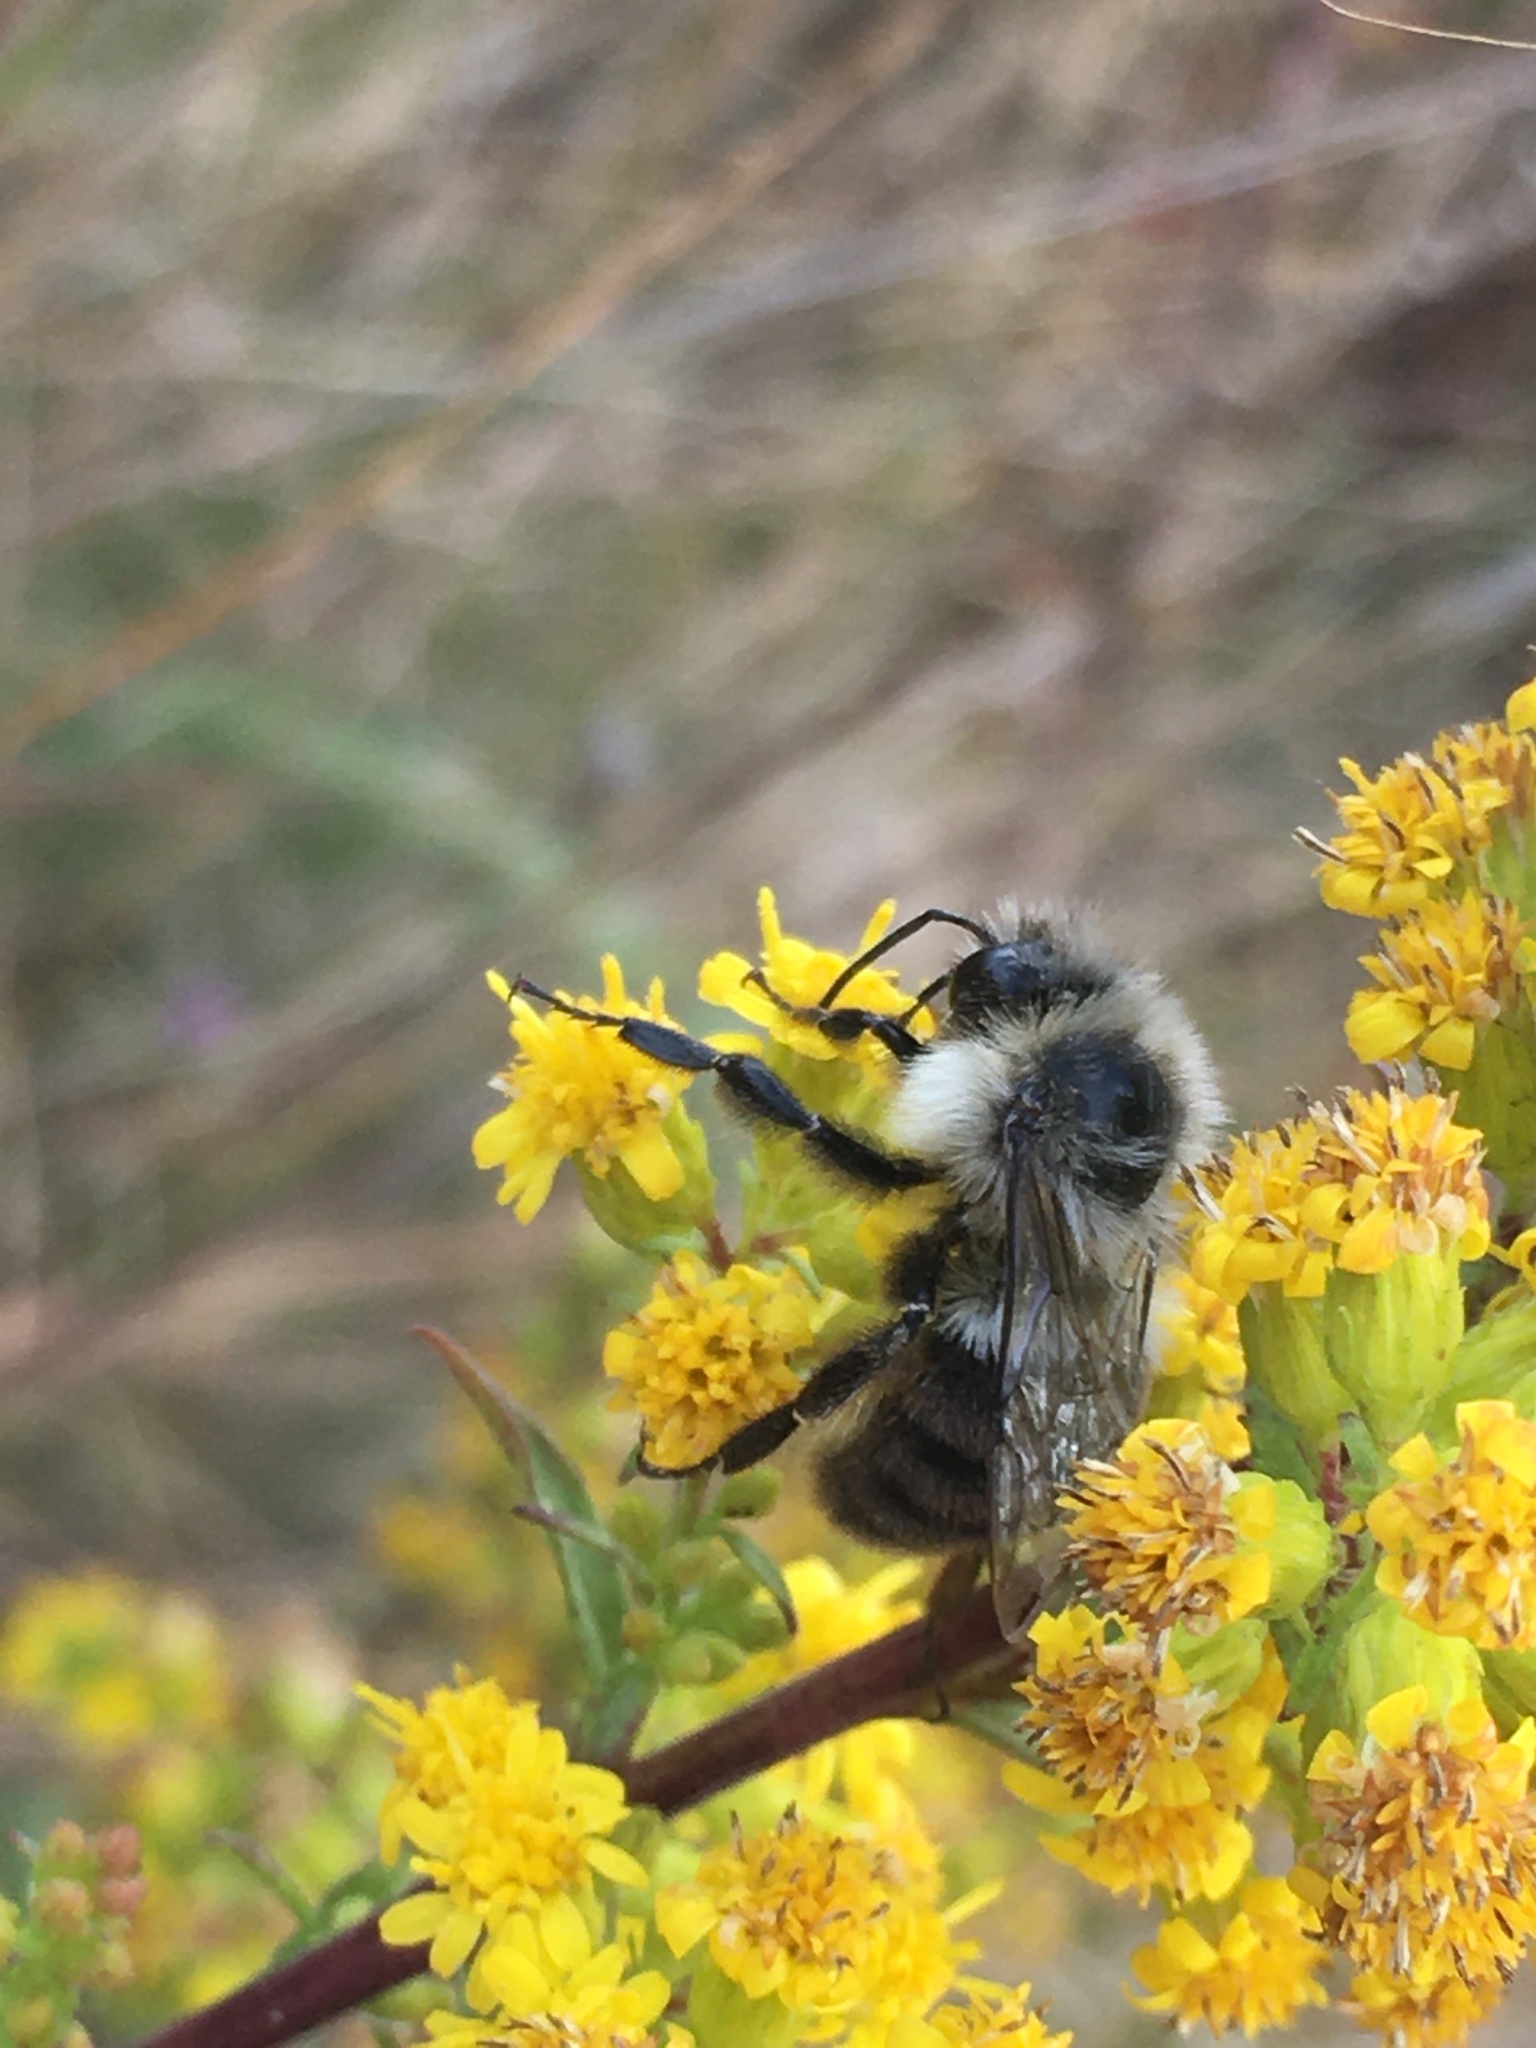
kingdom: Animalia
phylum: Arthropoda
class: Insecta
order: Hymenoptera
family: Apidae
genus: Bombus
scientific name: Bombus impatiens
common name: Common eastern bumble bee
